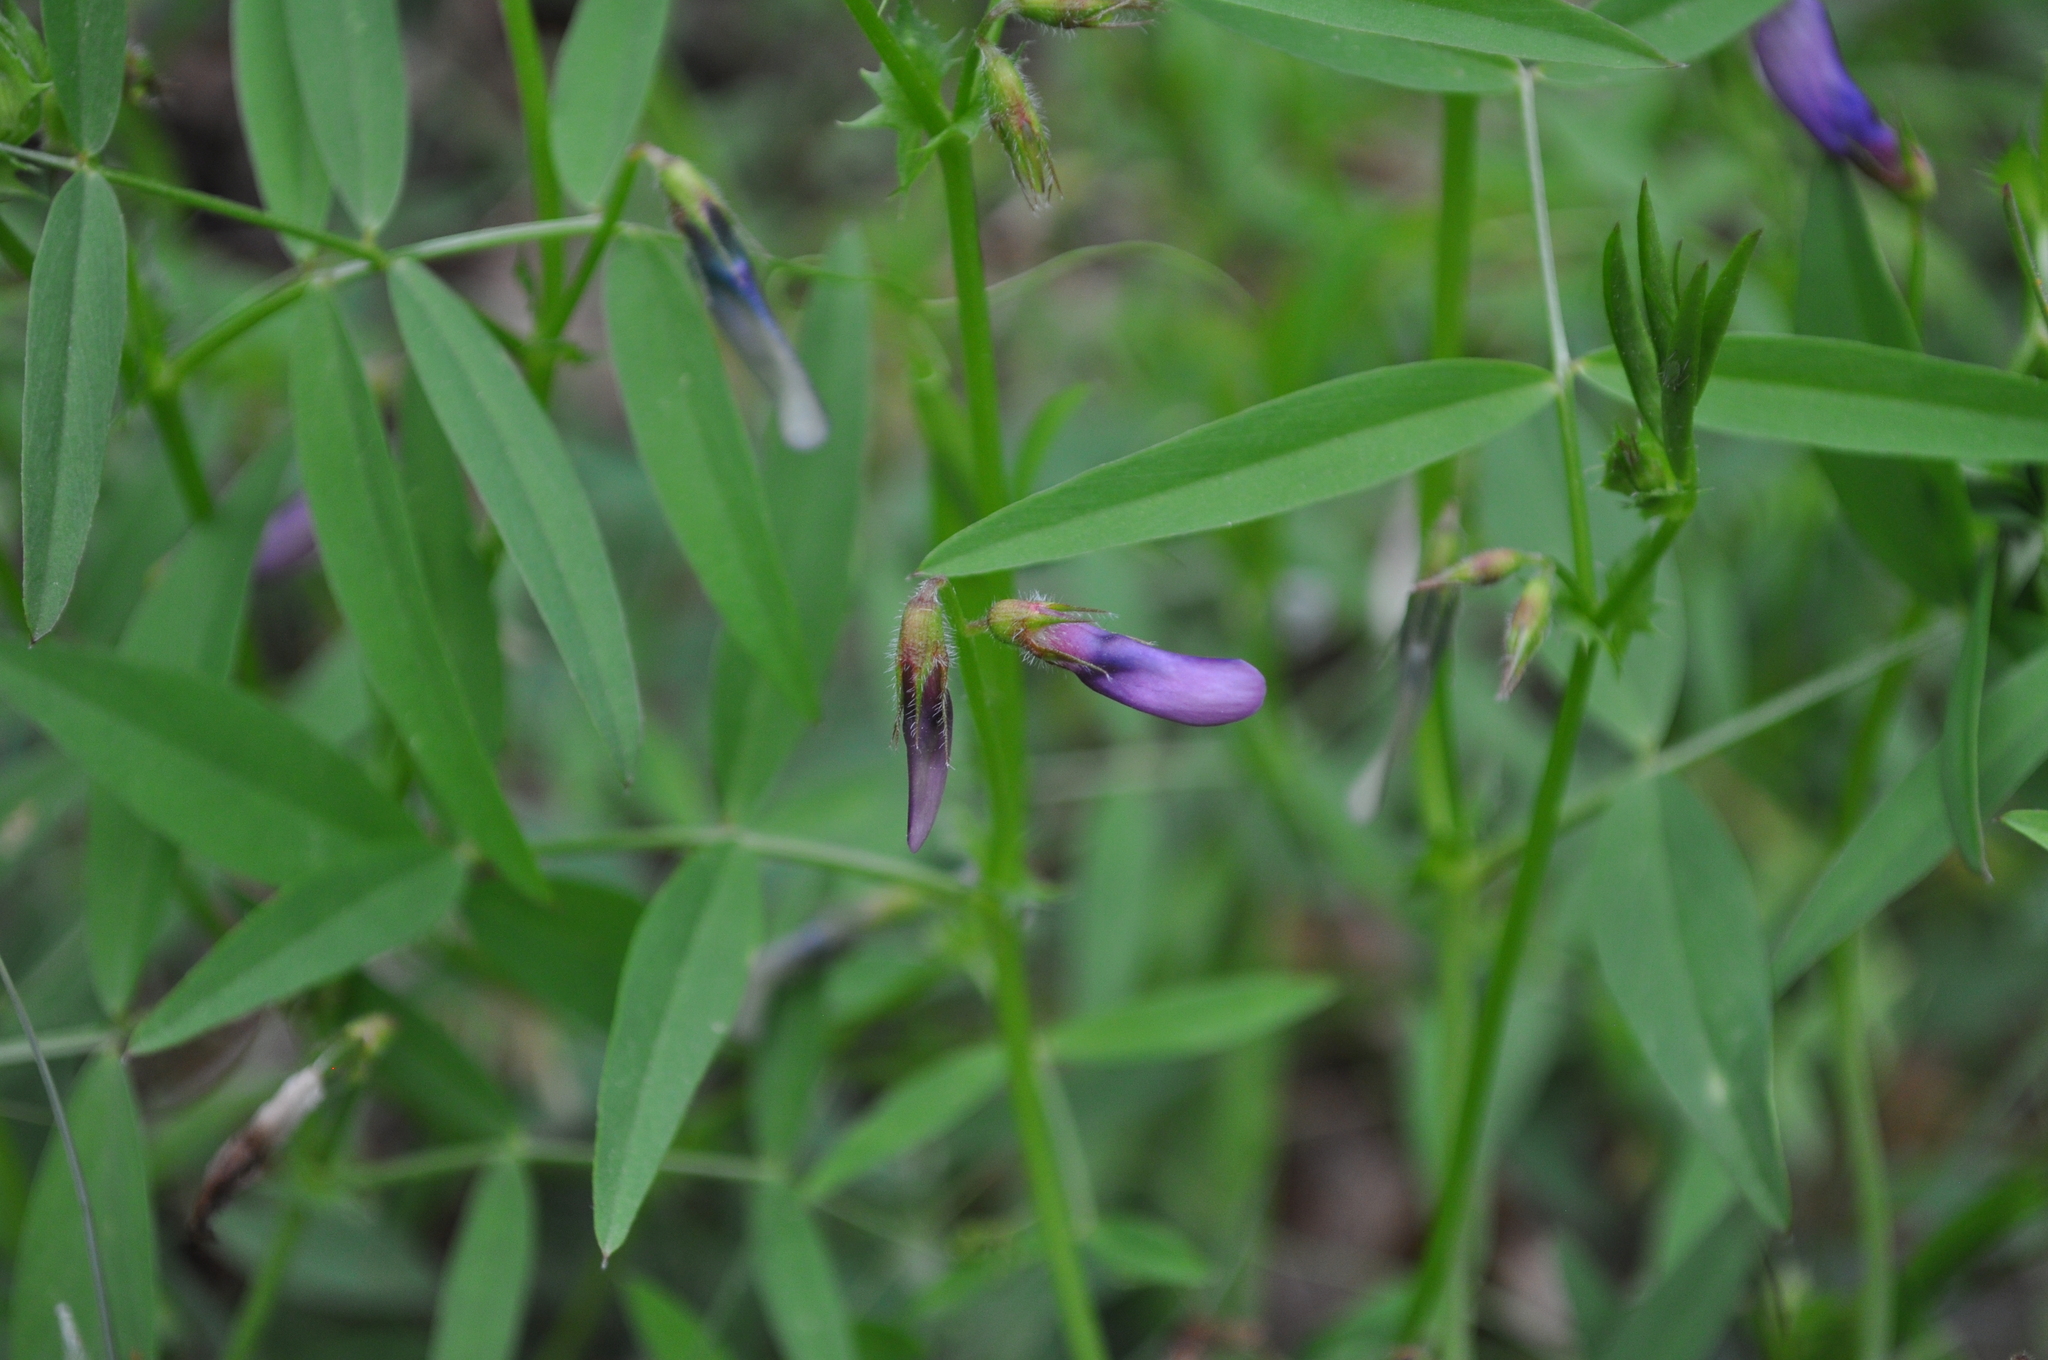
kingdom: Plantae
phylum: Tracheophyta
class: Magnoliopsida
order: Fabales
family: Fabaceae
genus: Vicia
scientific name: Vicia bithynica
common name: Bithynian vetch
